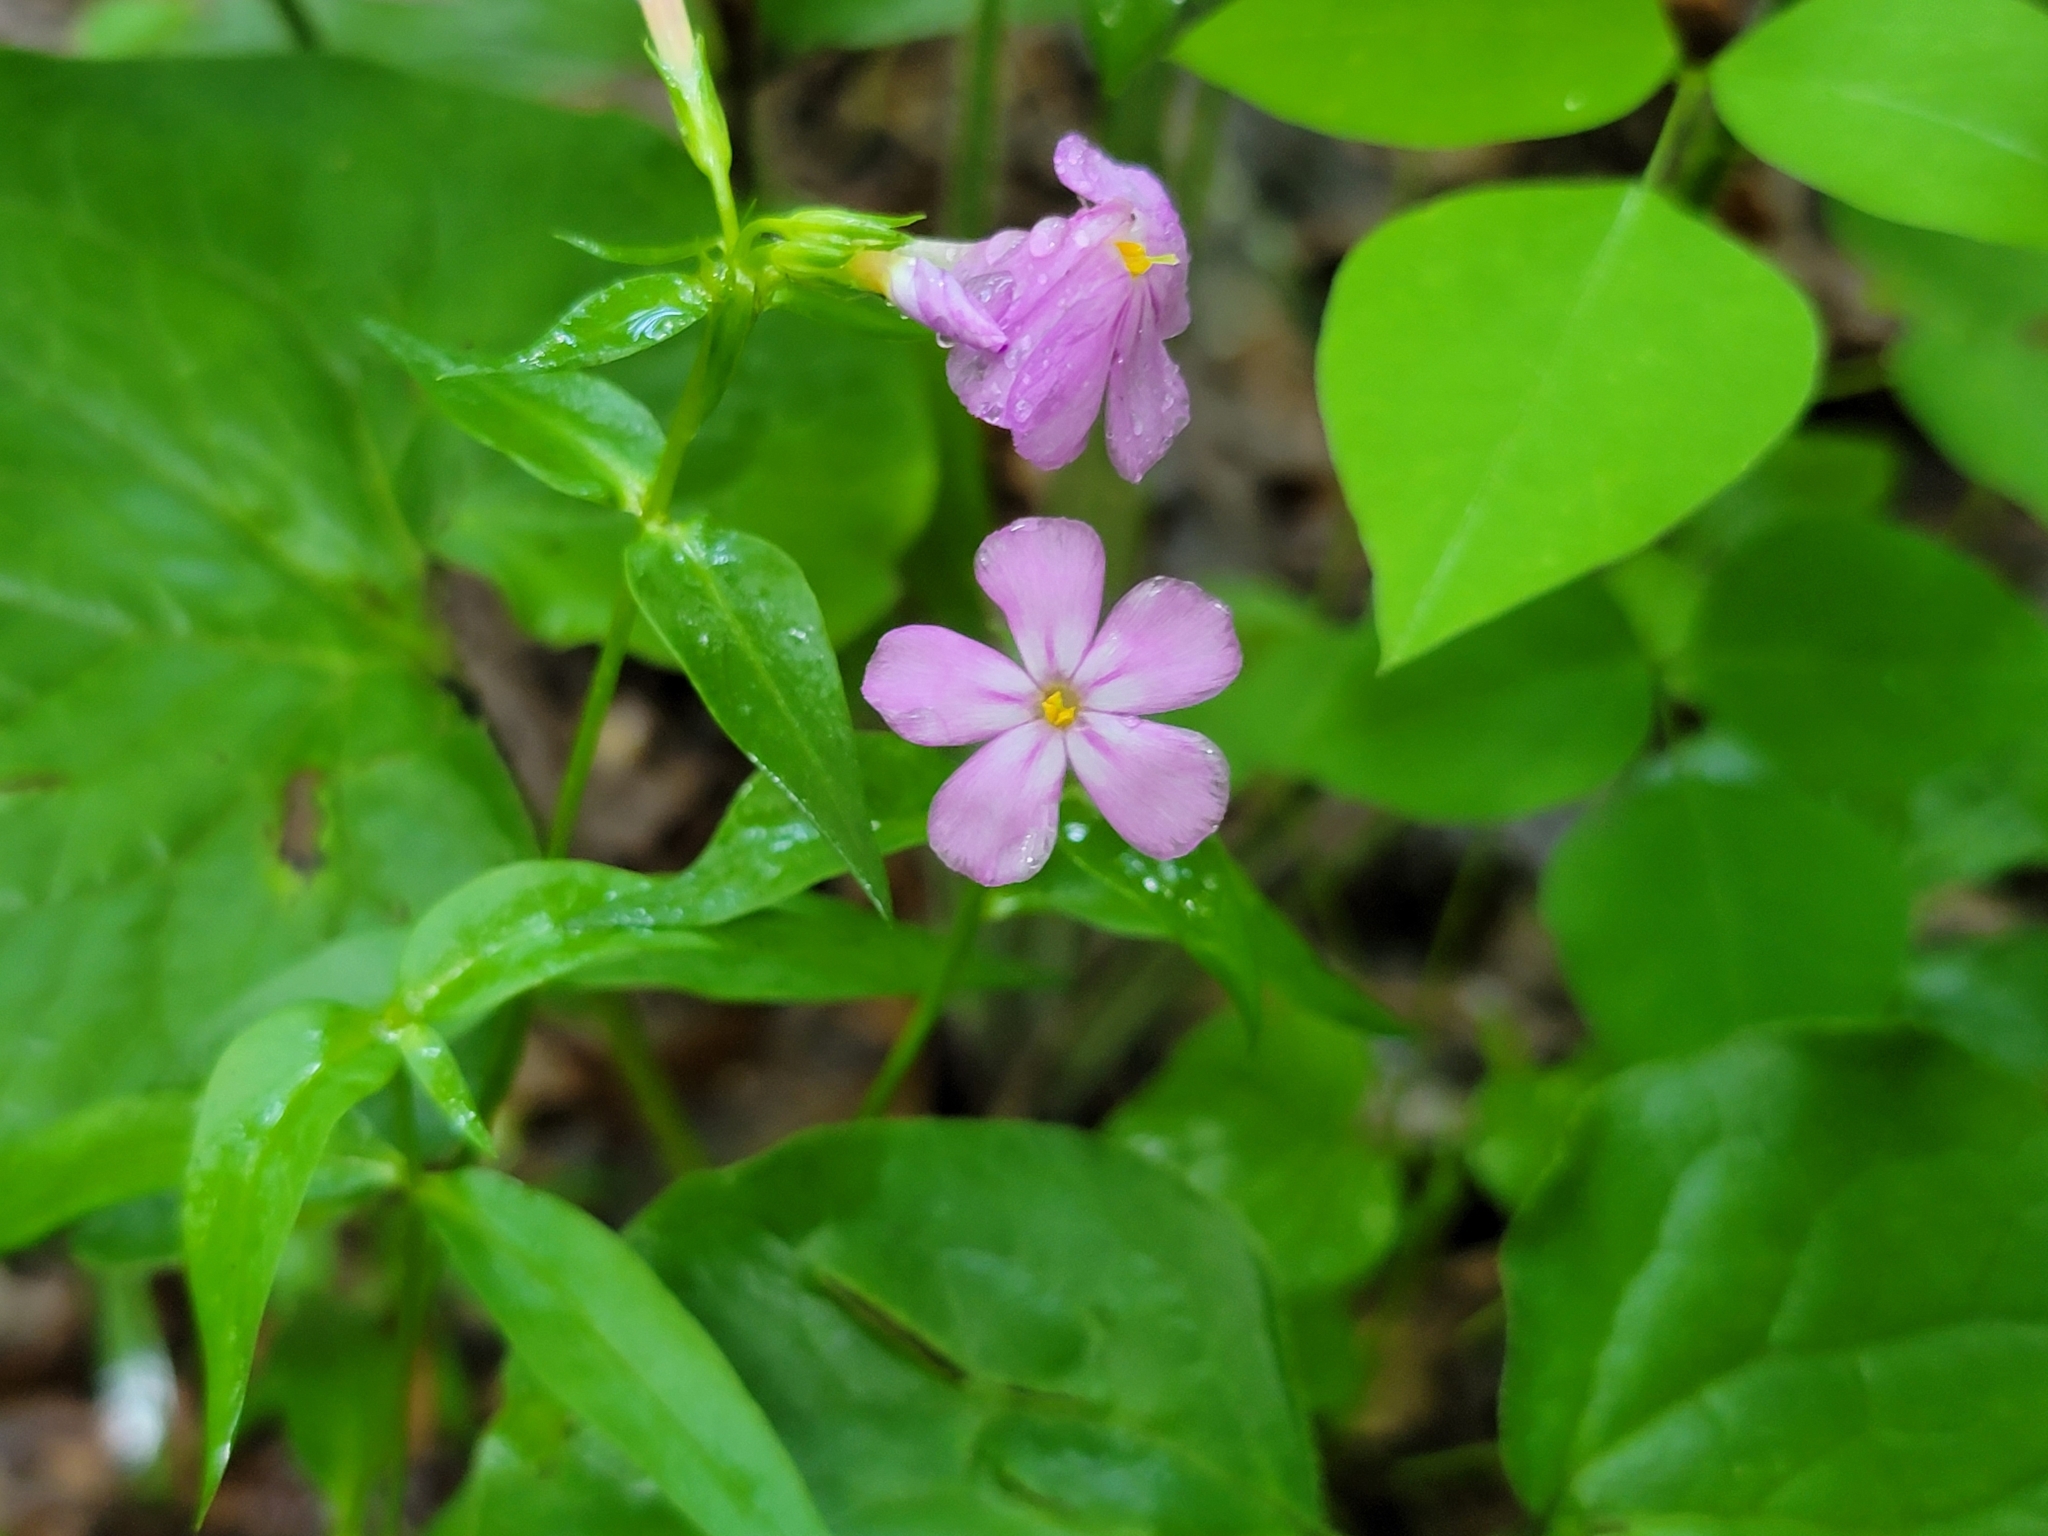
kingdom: Plantae
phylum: Tracheophyta
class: Magnoliopsida
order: Ericales
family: Polemoniaceae
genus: Phlox
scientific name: Phlox glaberrima
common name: Smooth phlox
